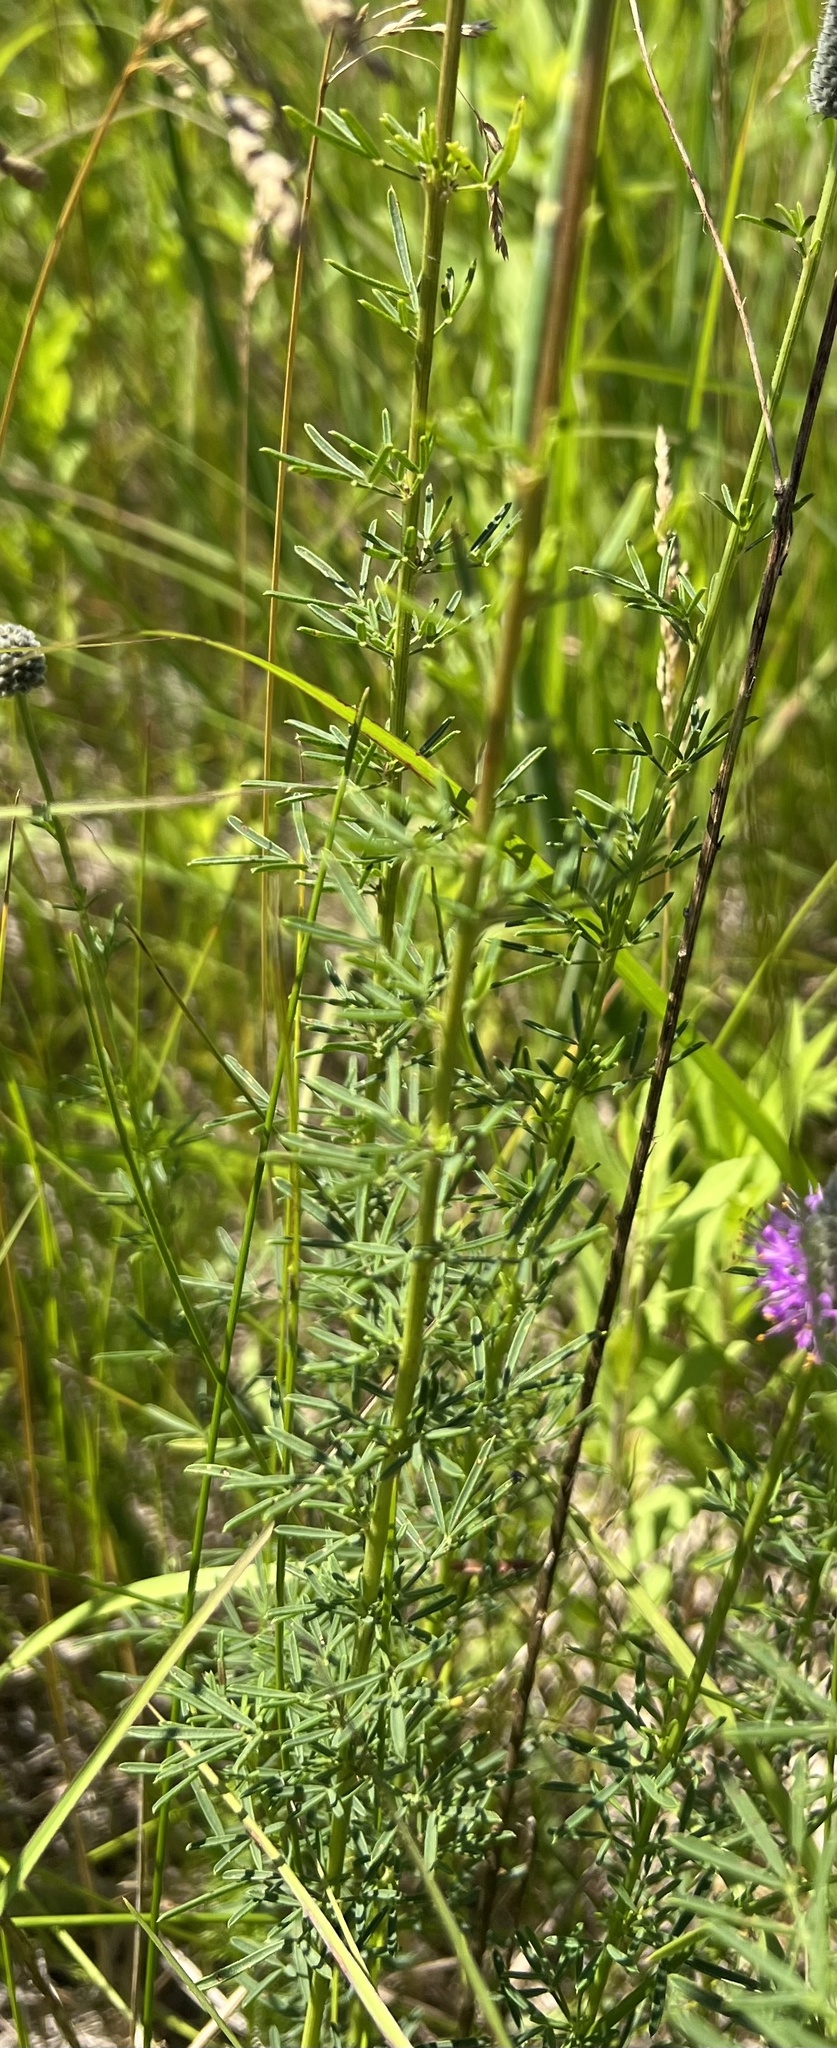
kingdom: Plantae
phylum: Tracheophyta
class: Magnoliopsida
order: Fabales
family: Fabaceae
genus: Dalea
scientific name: Dalea purpurea
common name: Purple prairie-clover
